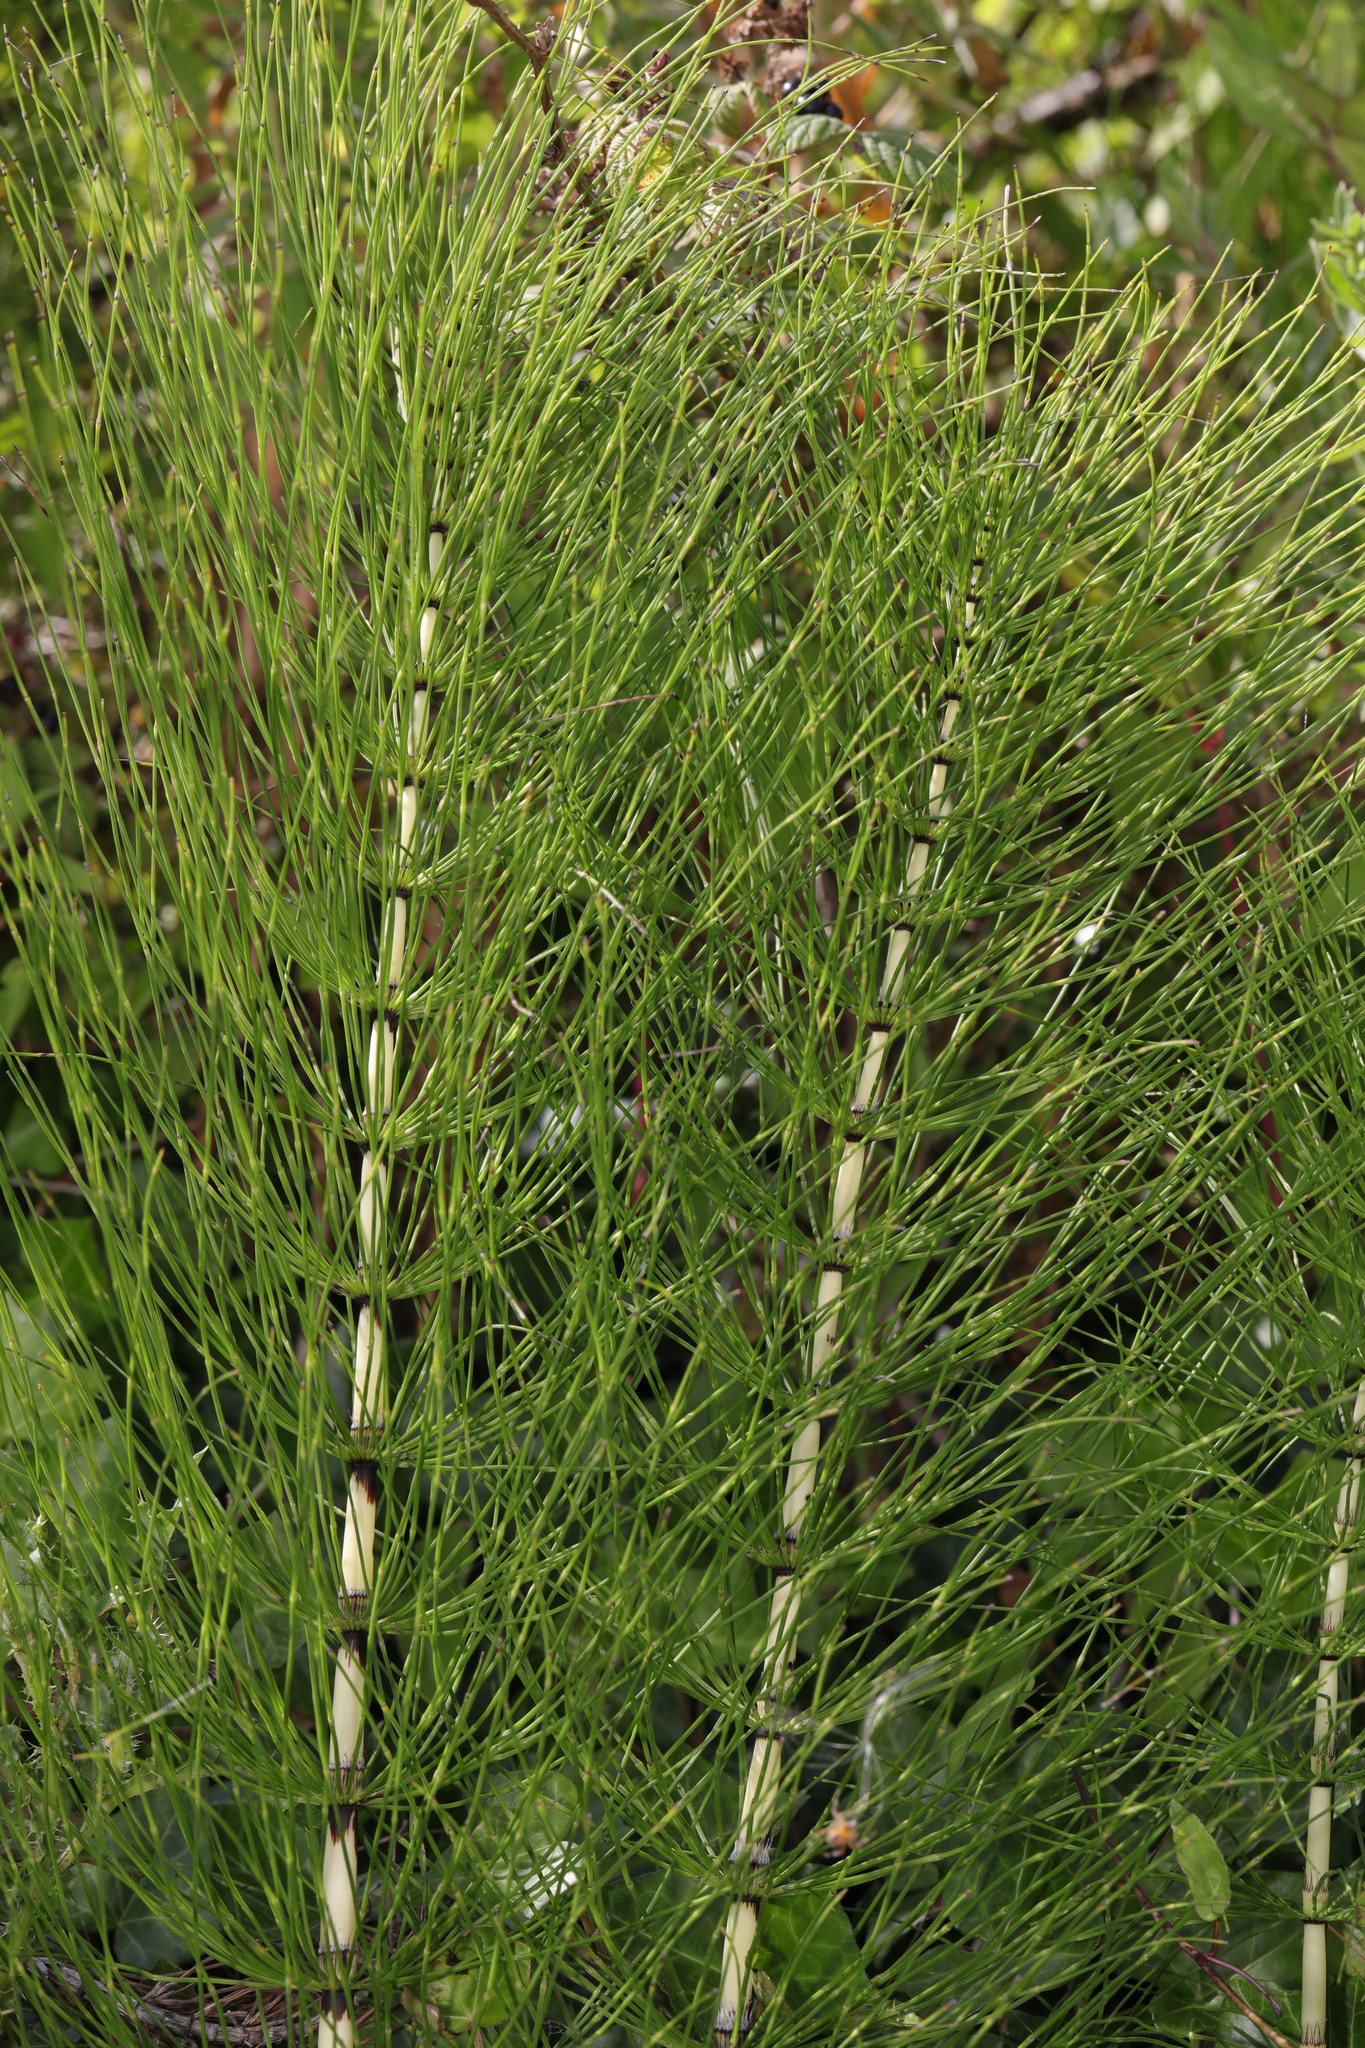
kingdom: Plantae
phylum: Tracheophyta
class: Polypodiopsida
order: Equisetales
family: Equisetaceae
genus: Equisetum
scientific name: Equisetum telmateia
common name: Great horsetail
